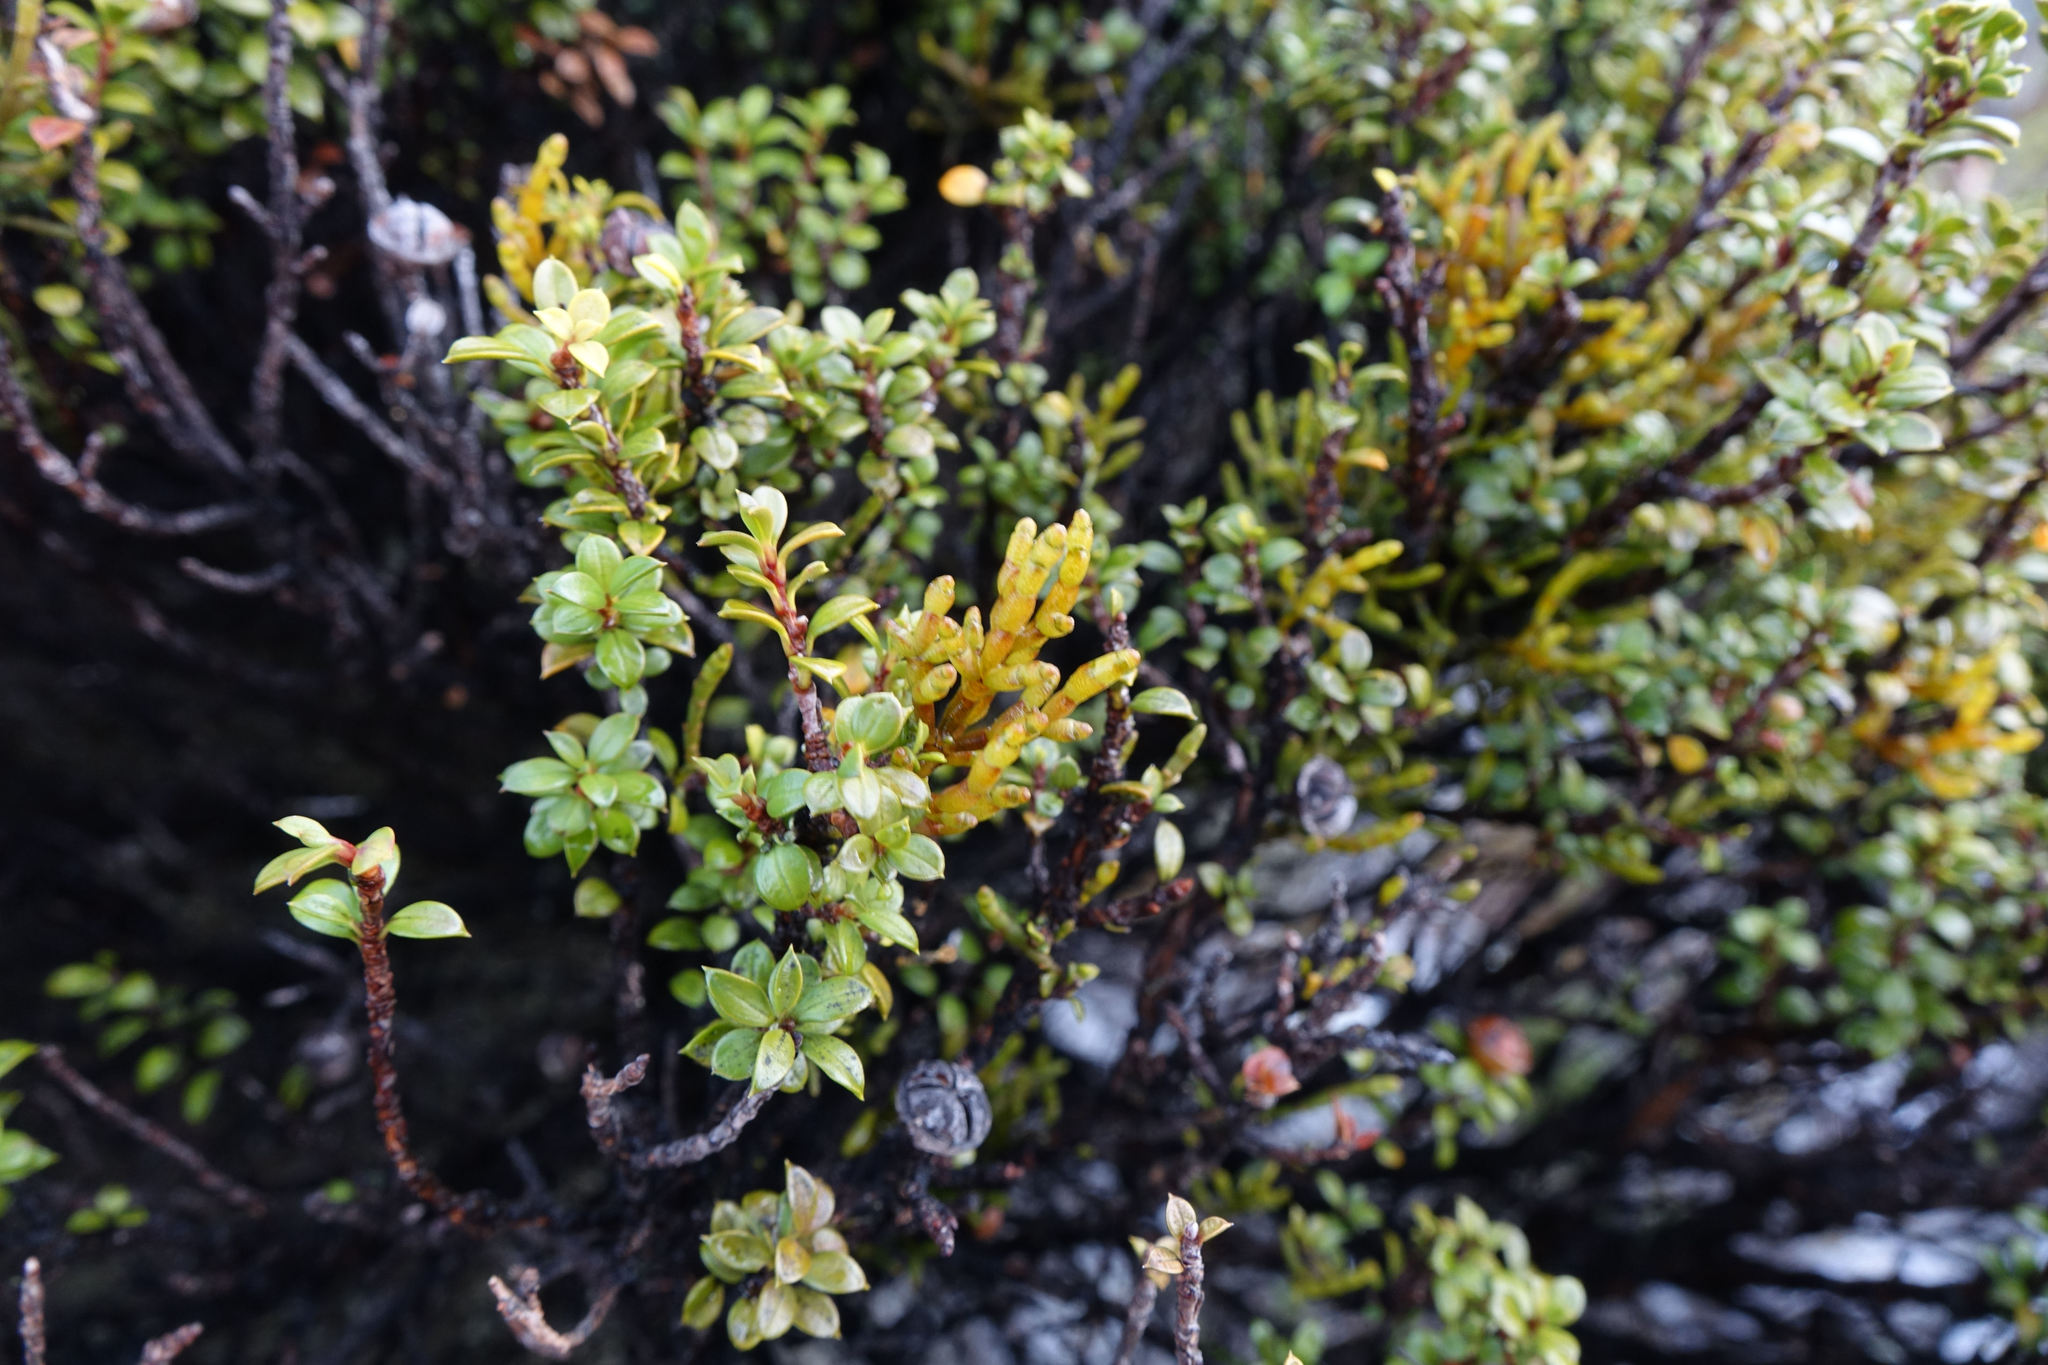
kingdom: Plantae
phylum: Tracheophyta
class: Magnoliopsida
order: Santalales
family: Viscaceae
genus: Korthalsella
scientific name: Korthalsella salicornioides
